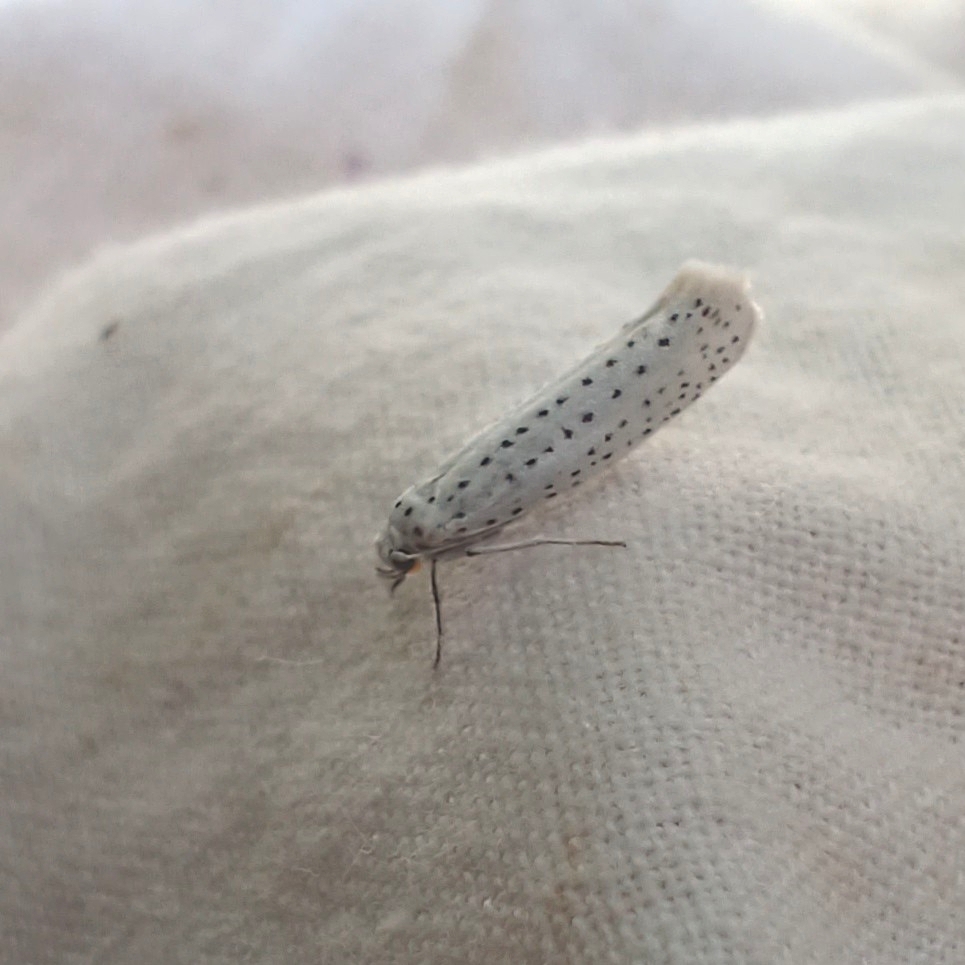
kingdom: Animalia
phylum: Arthropoda
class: Insecta
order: Lepidoptera
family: Yponomeutidae
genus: Yponomeuta
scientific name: Yponomeuta evonymella
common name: Bird-cherry ermine
